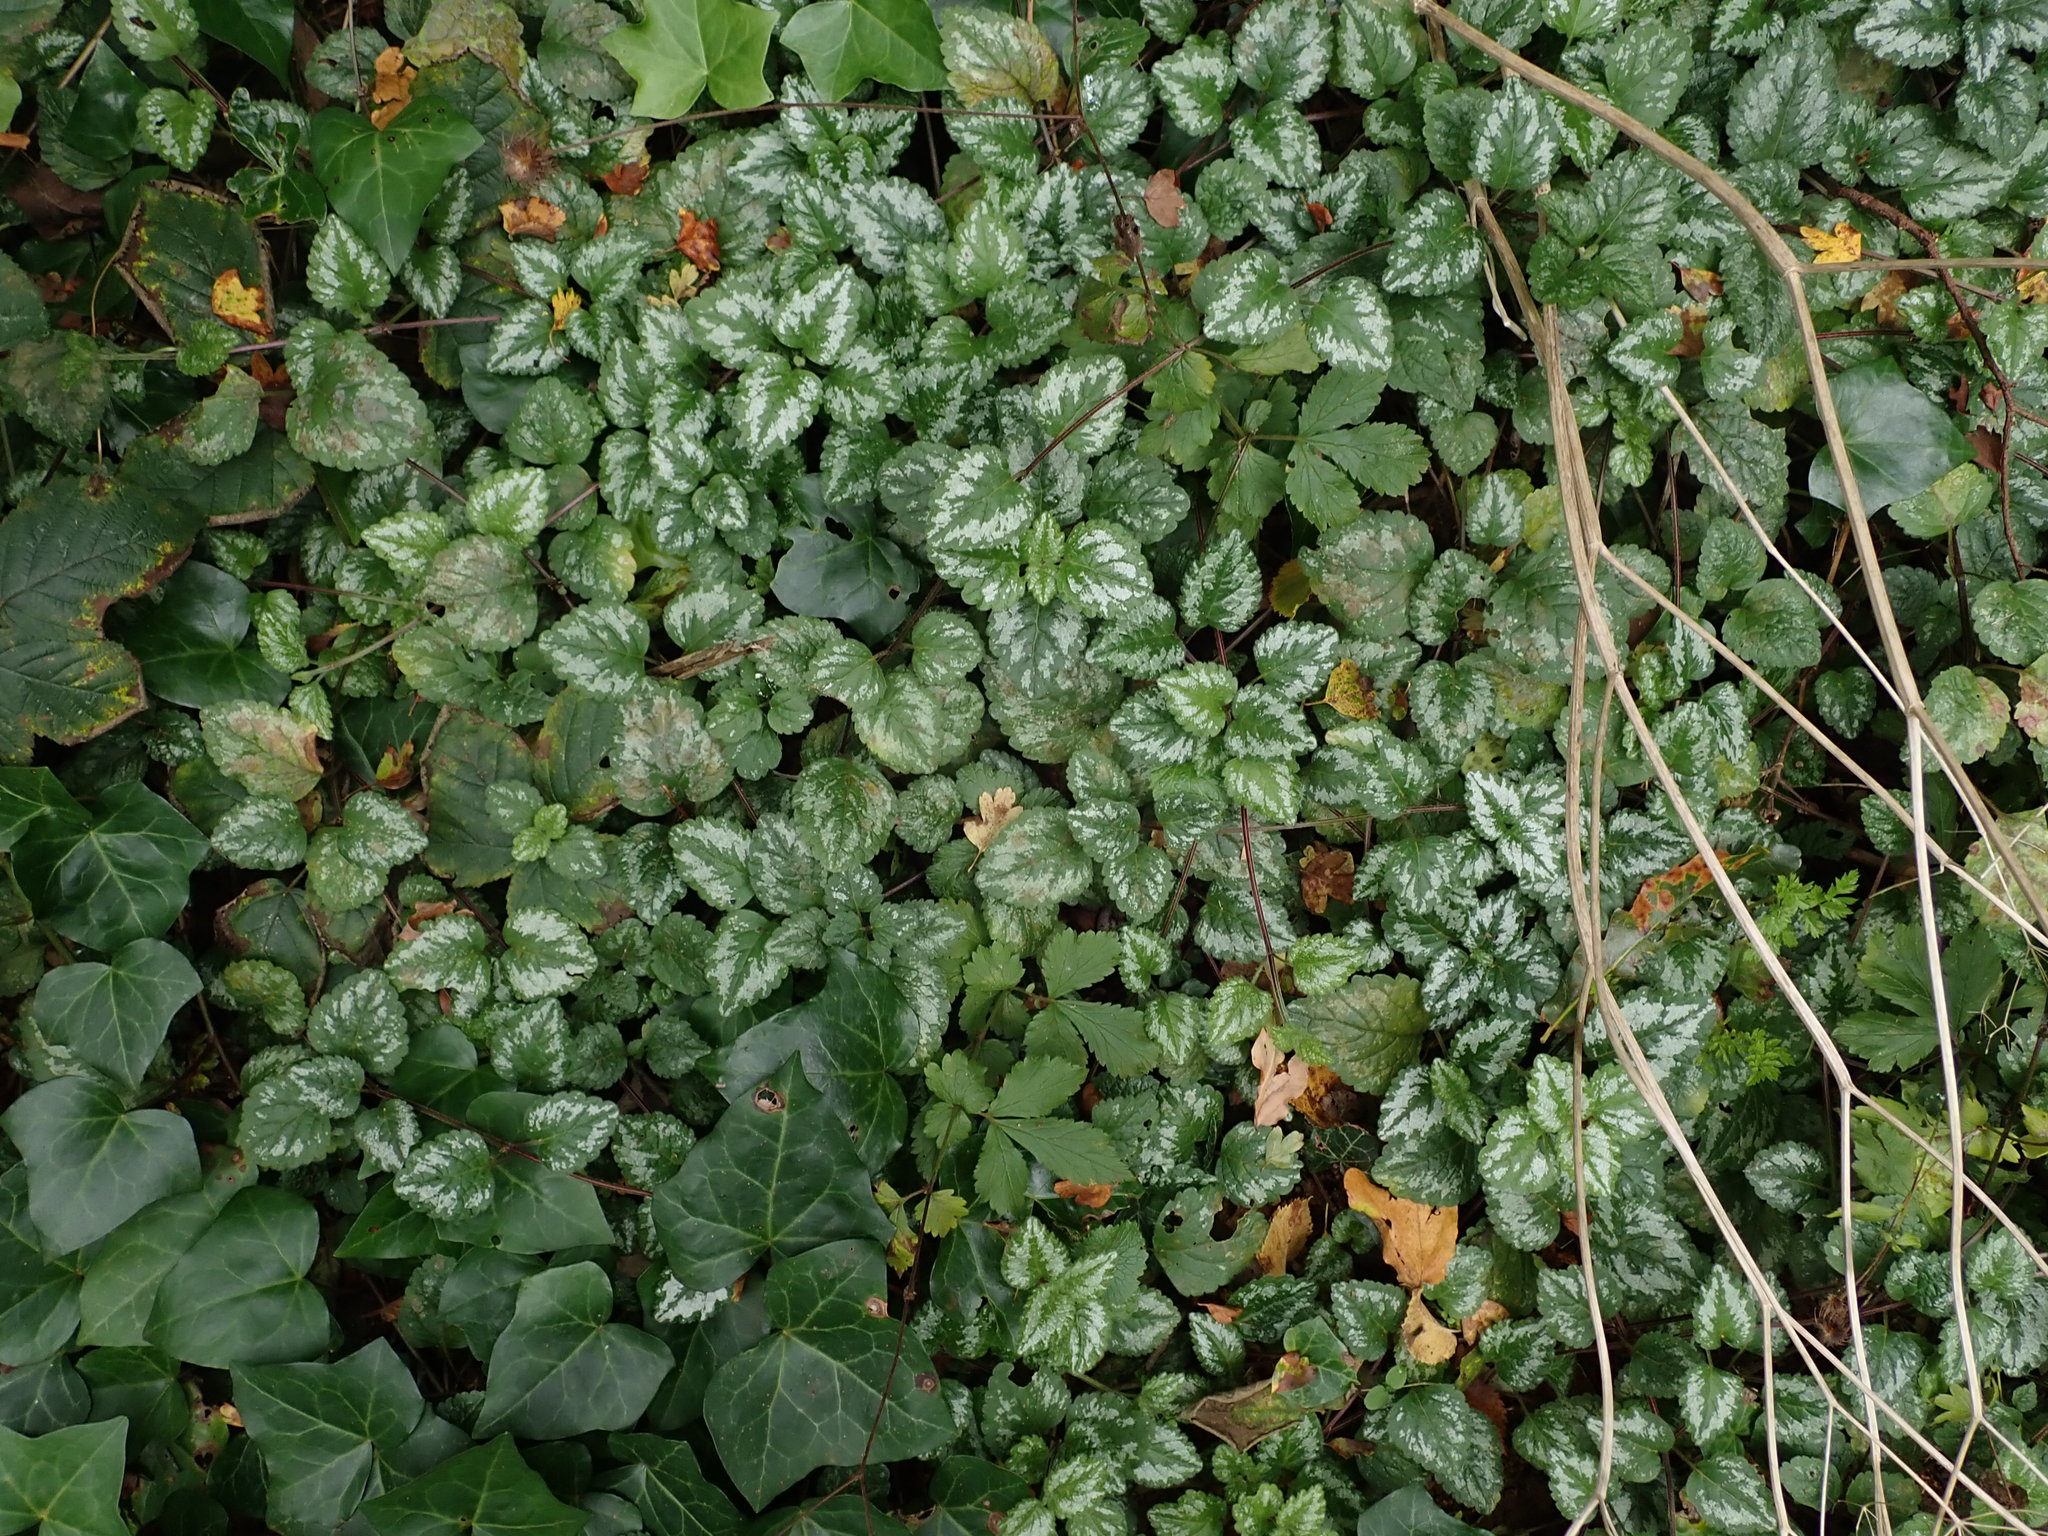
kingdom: Plantae
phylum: Tracheophyta
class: Magnoliopsida
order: Lamiales
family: Lamiaceae
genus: Lamium
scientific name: Lamium galeobdolon
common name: Yellow archangel
